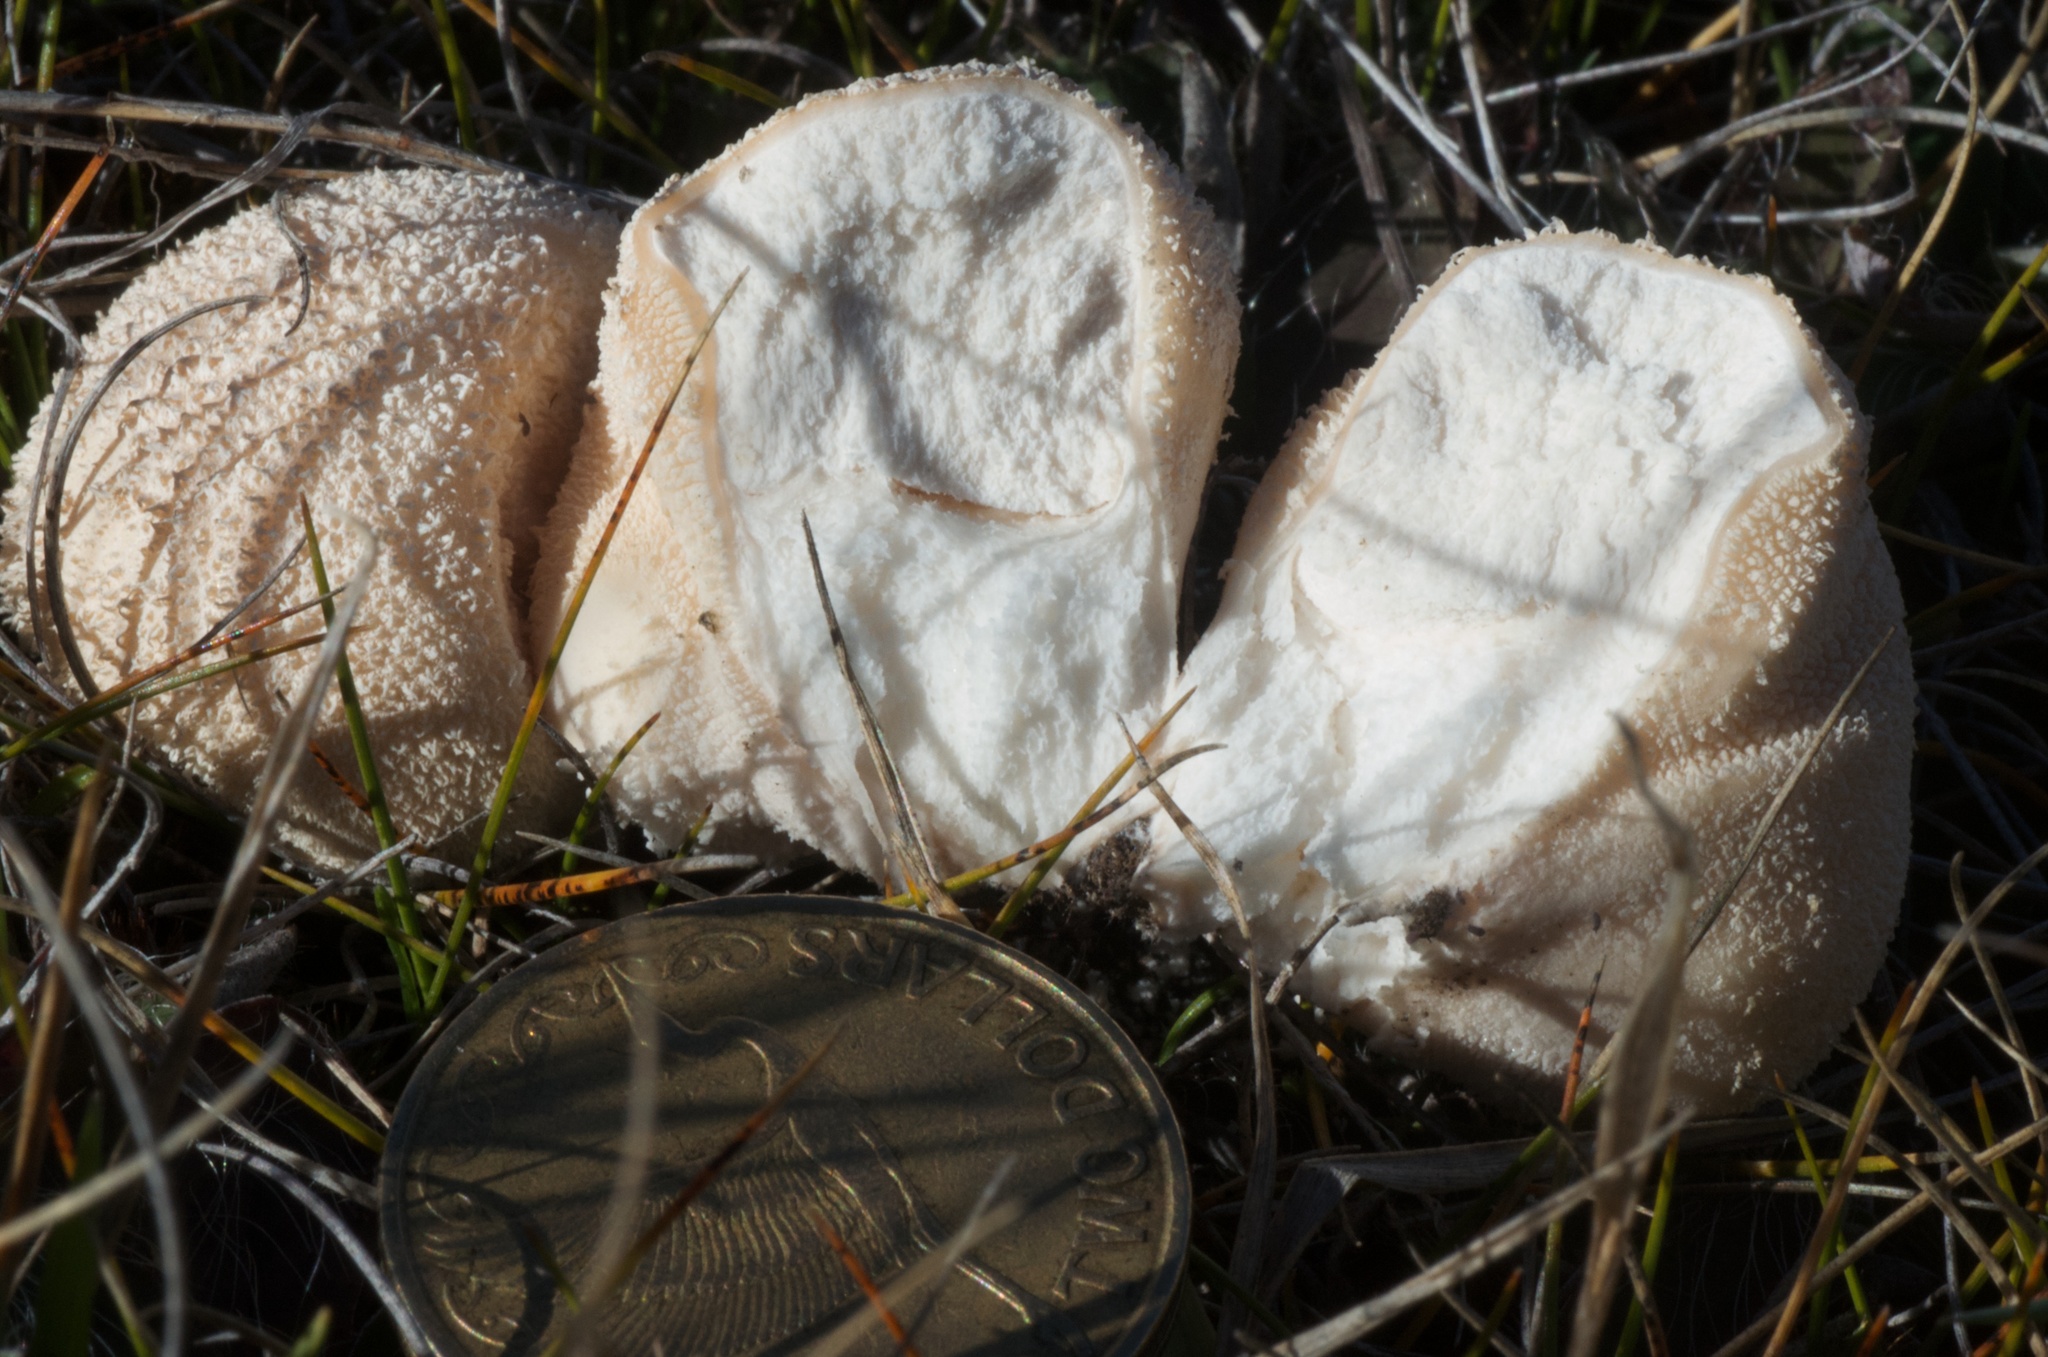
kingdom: Fungi
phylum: Basidiomycota
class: Agaricomycetes
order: Agaricales
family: Lycoperdaceae
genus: Lycoperdon
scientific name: Lycoperdon pratense
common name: Meadow puffball
